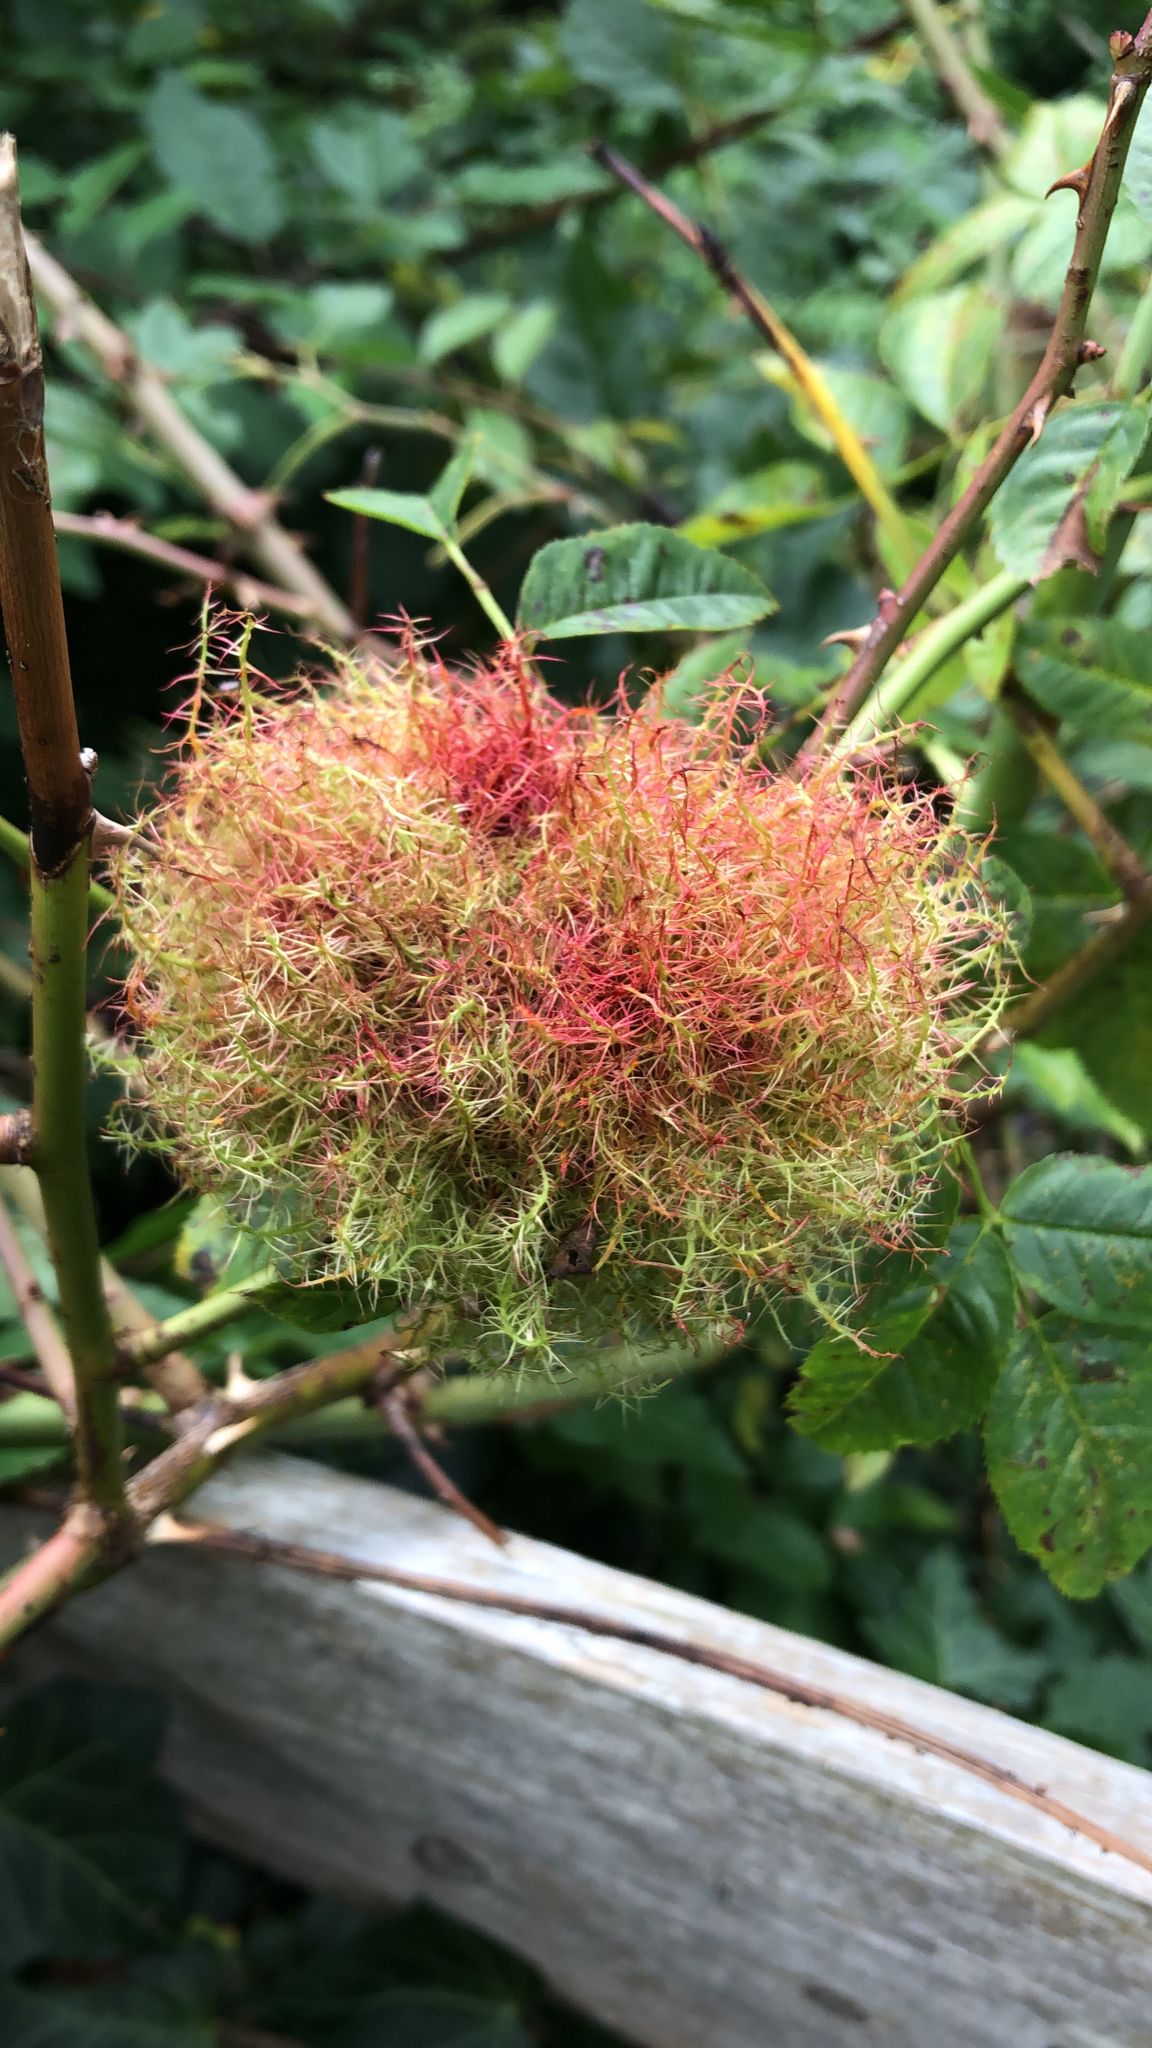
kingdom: Animalia
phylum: Arthropoda
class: Insecta
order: Hymenoptera
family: Cynipidae
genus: Diplolepis
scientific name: Diplolepis rosae
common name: Bedeguar gall
